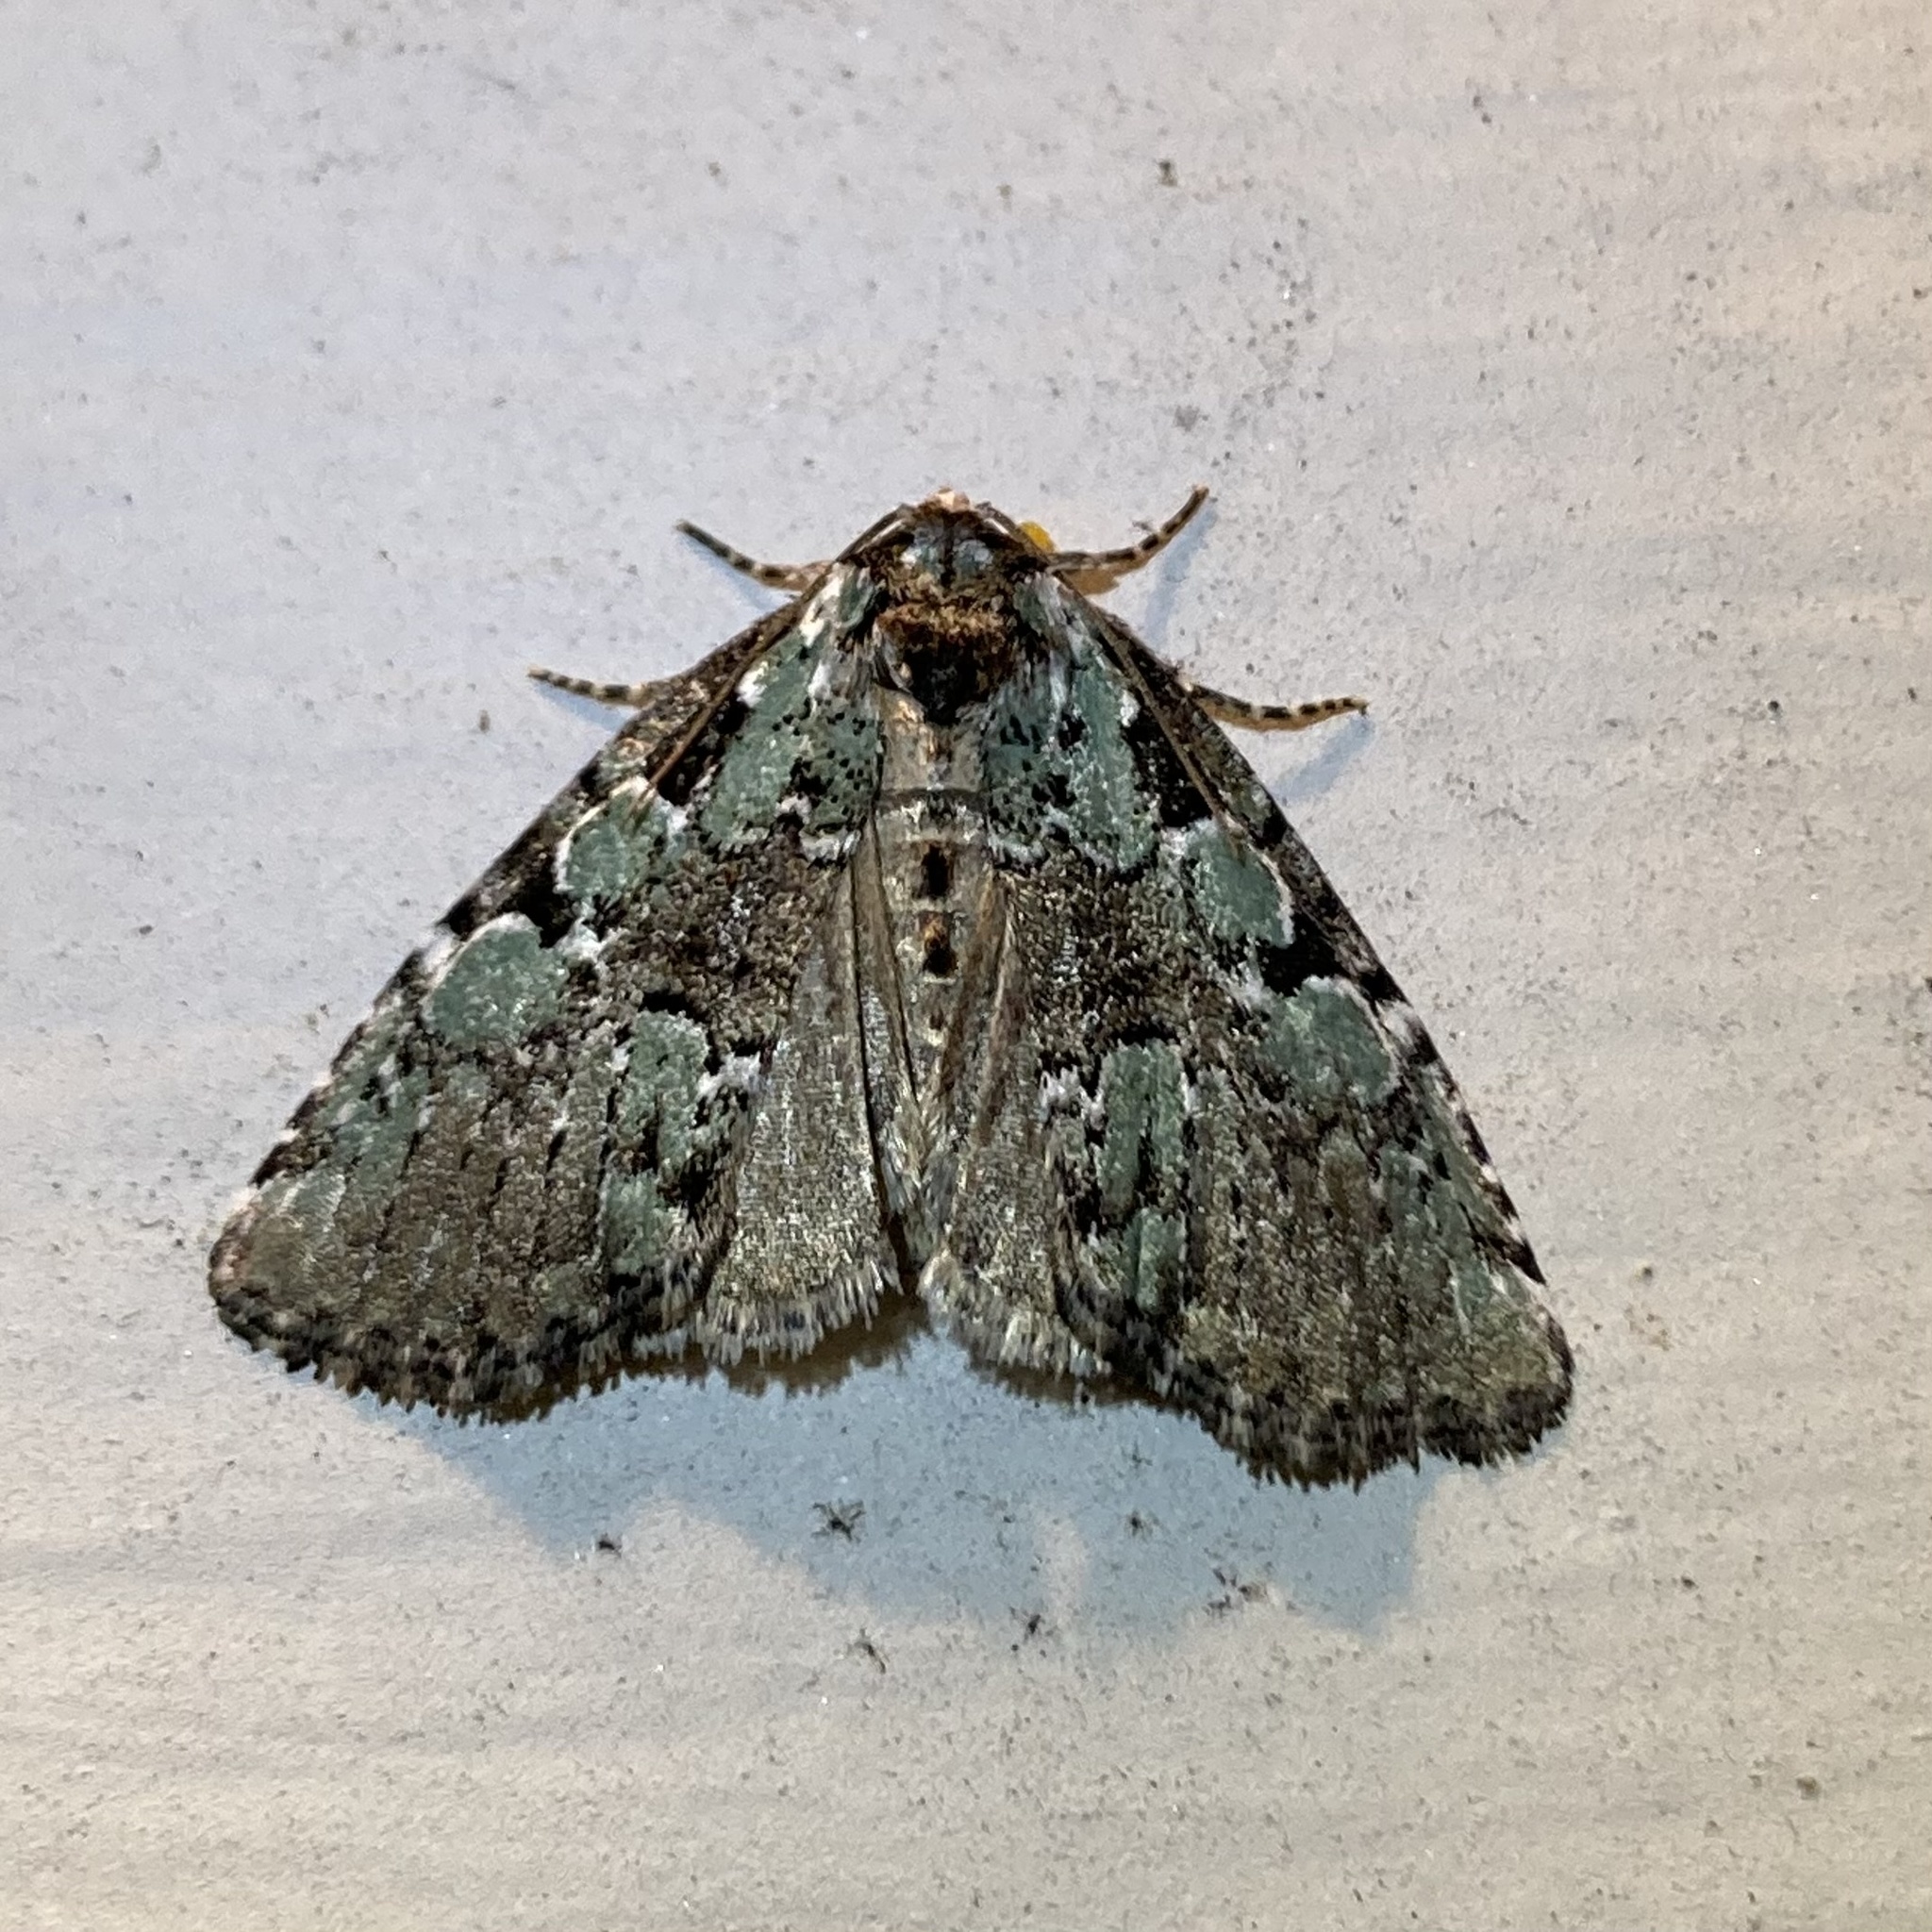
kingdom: Animalia
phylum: Arthropoda
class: Insecta
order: Lepidoptera
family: Noctuidae
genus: Leuconycta
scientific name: Leuconycta lepidula
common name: Marbled-green leuconycta moth
